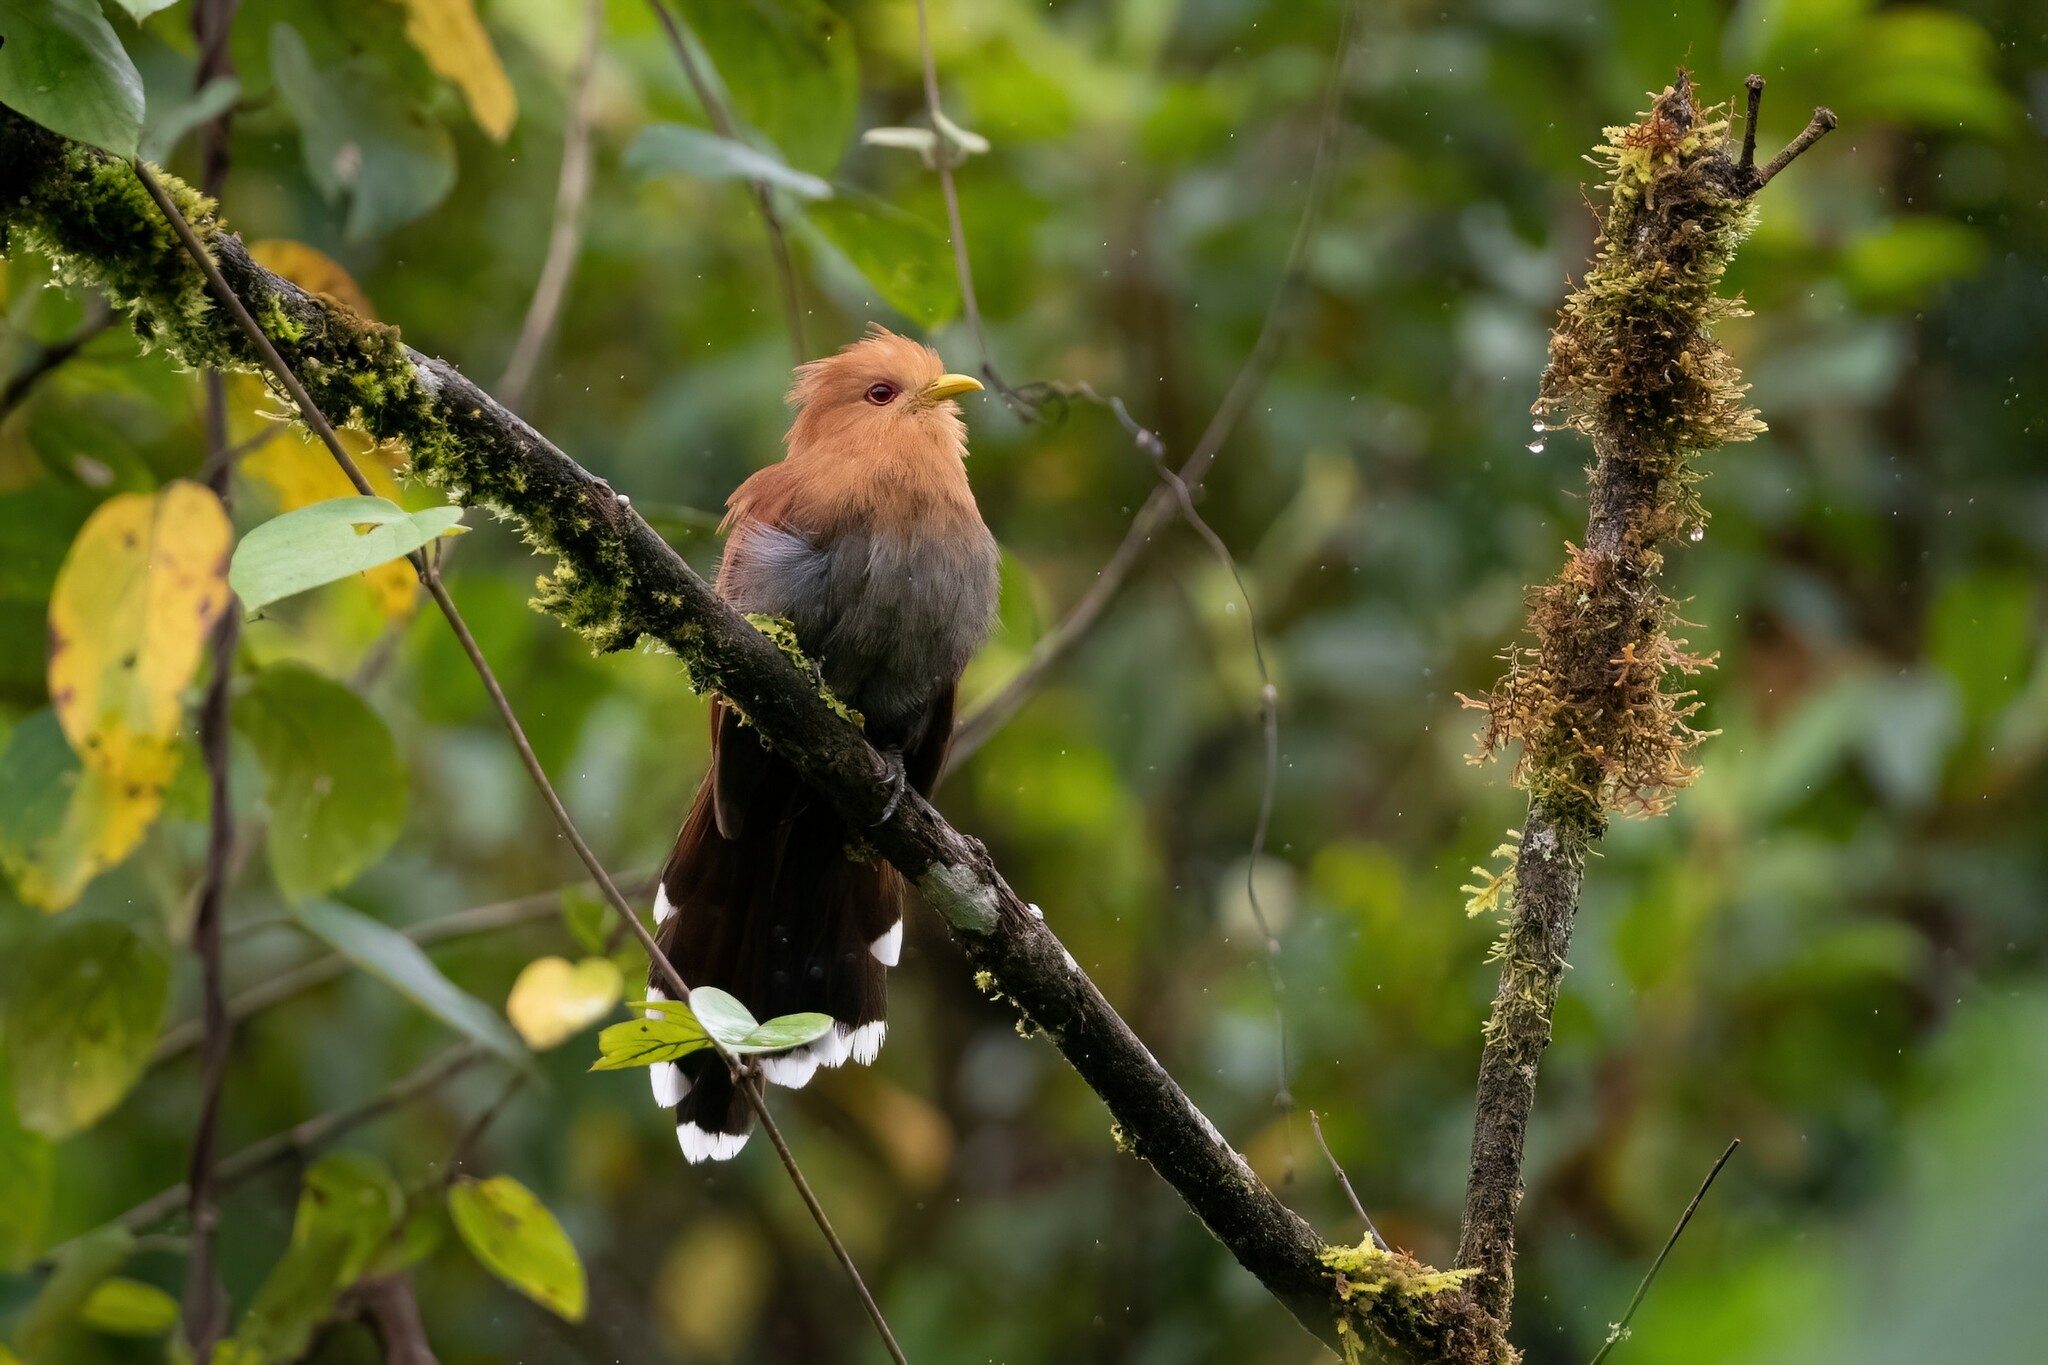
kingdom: Animalia
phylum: Chordata
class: Aves
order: Cuculiformes
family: Cuculidae
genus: Piaya
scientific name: Piaya minuta
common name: Little cuckoo
